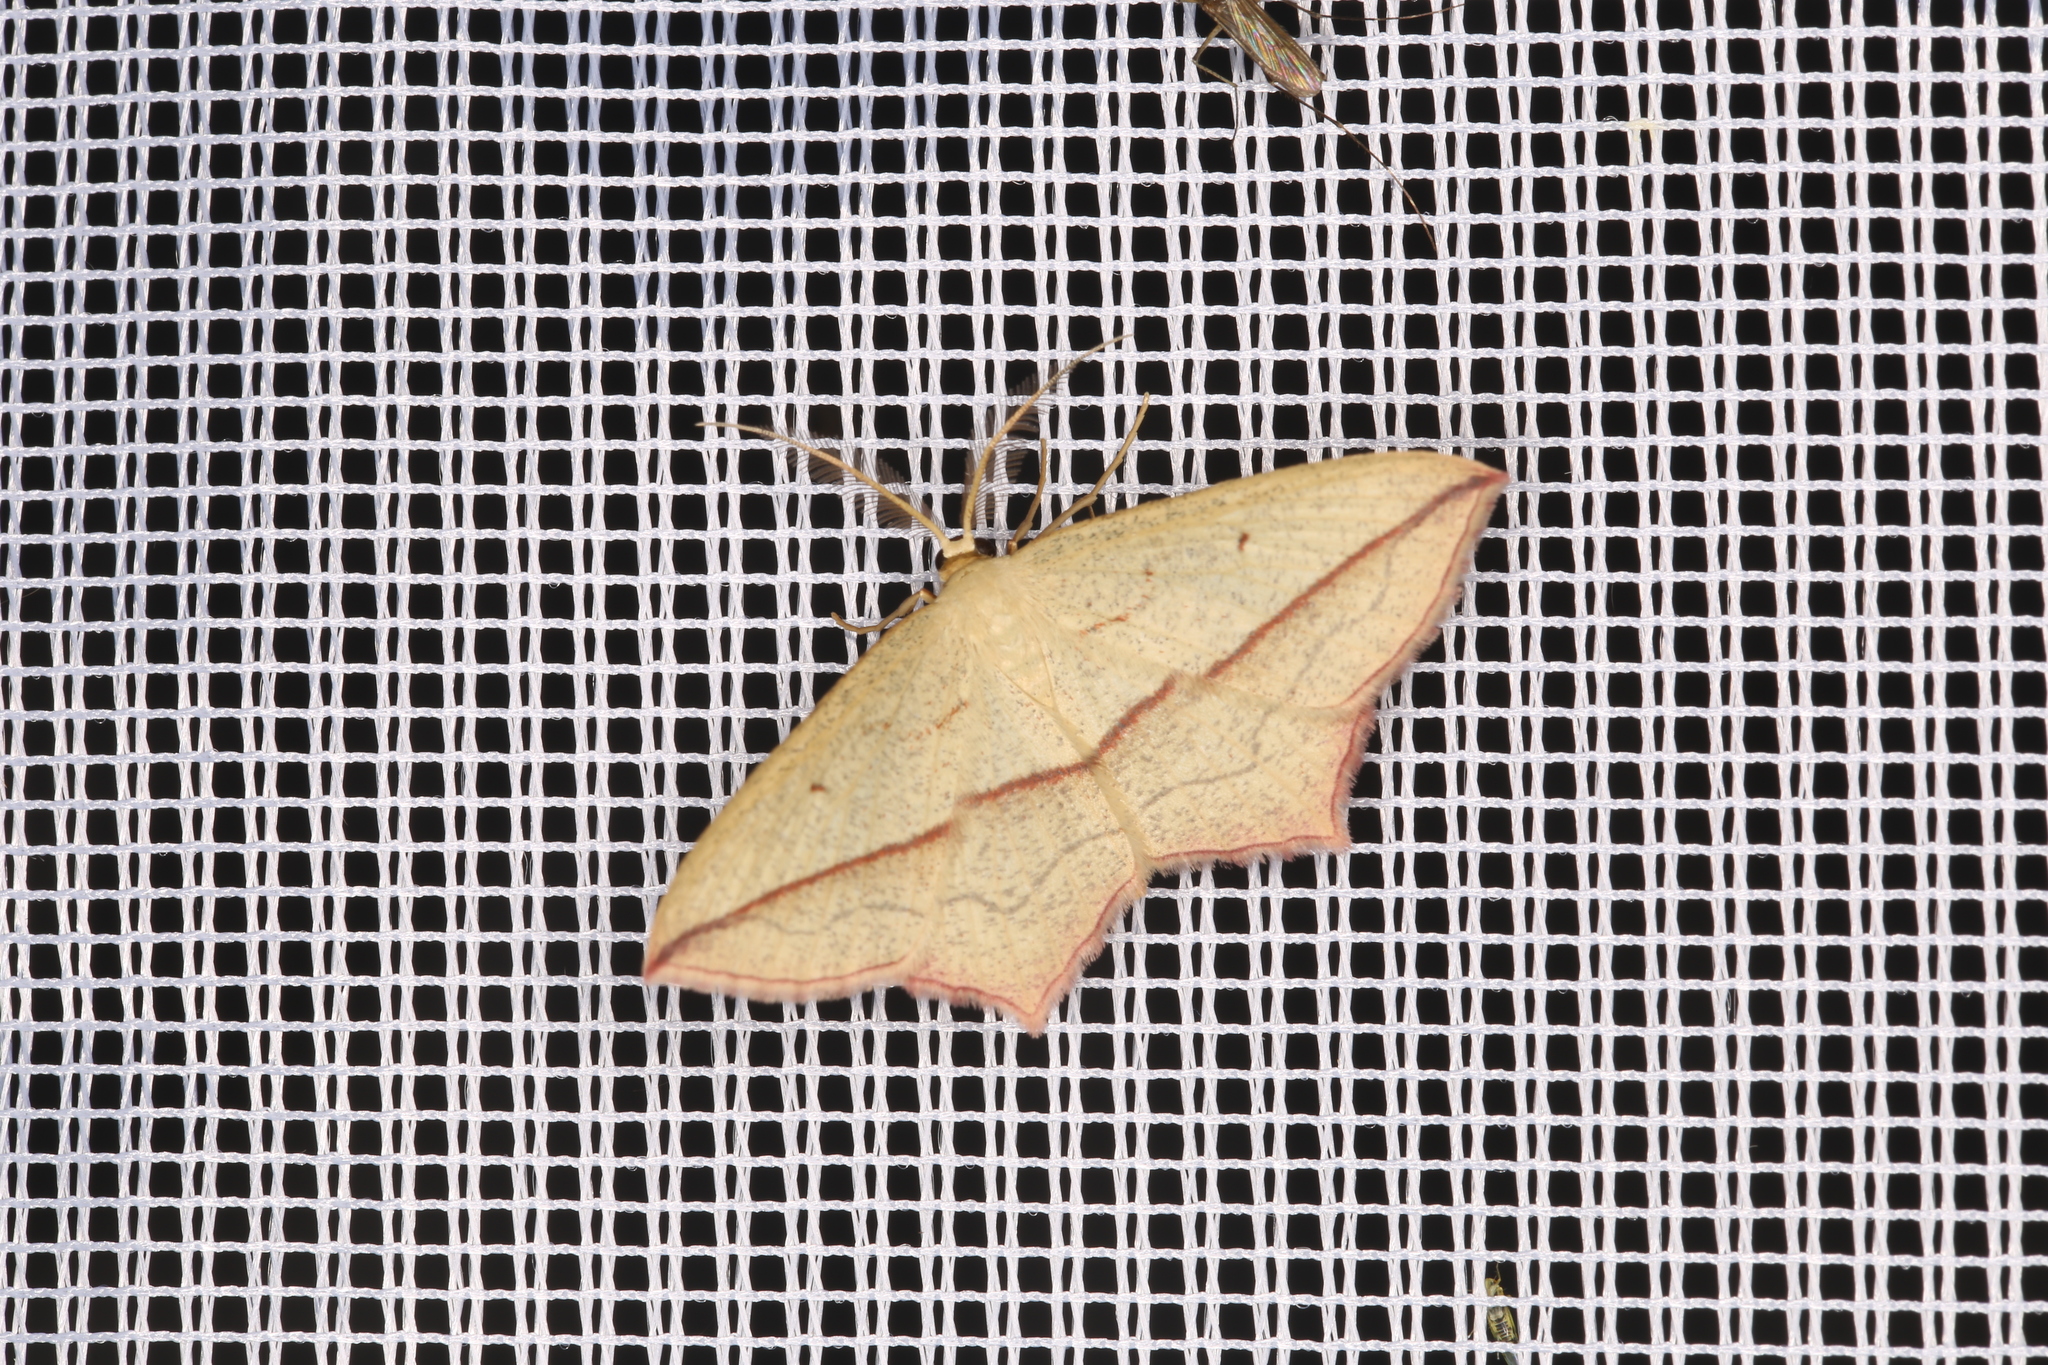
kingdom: Animalia
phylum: Arthropoda
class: Insecta
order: Lepidoptera
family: Geometridae
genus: Timandra
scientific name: Timandra comae
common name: Blood-vein
